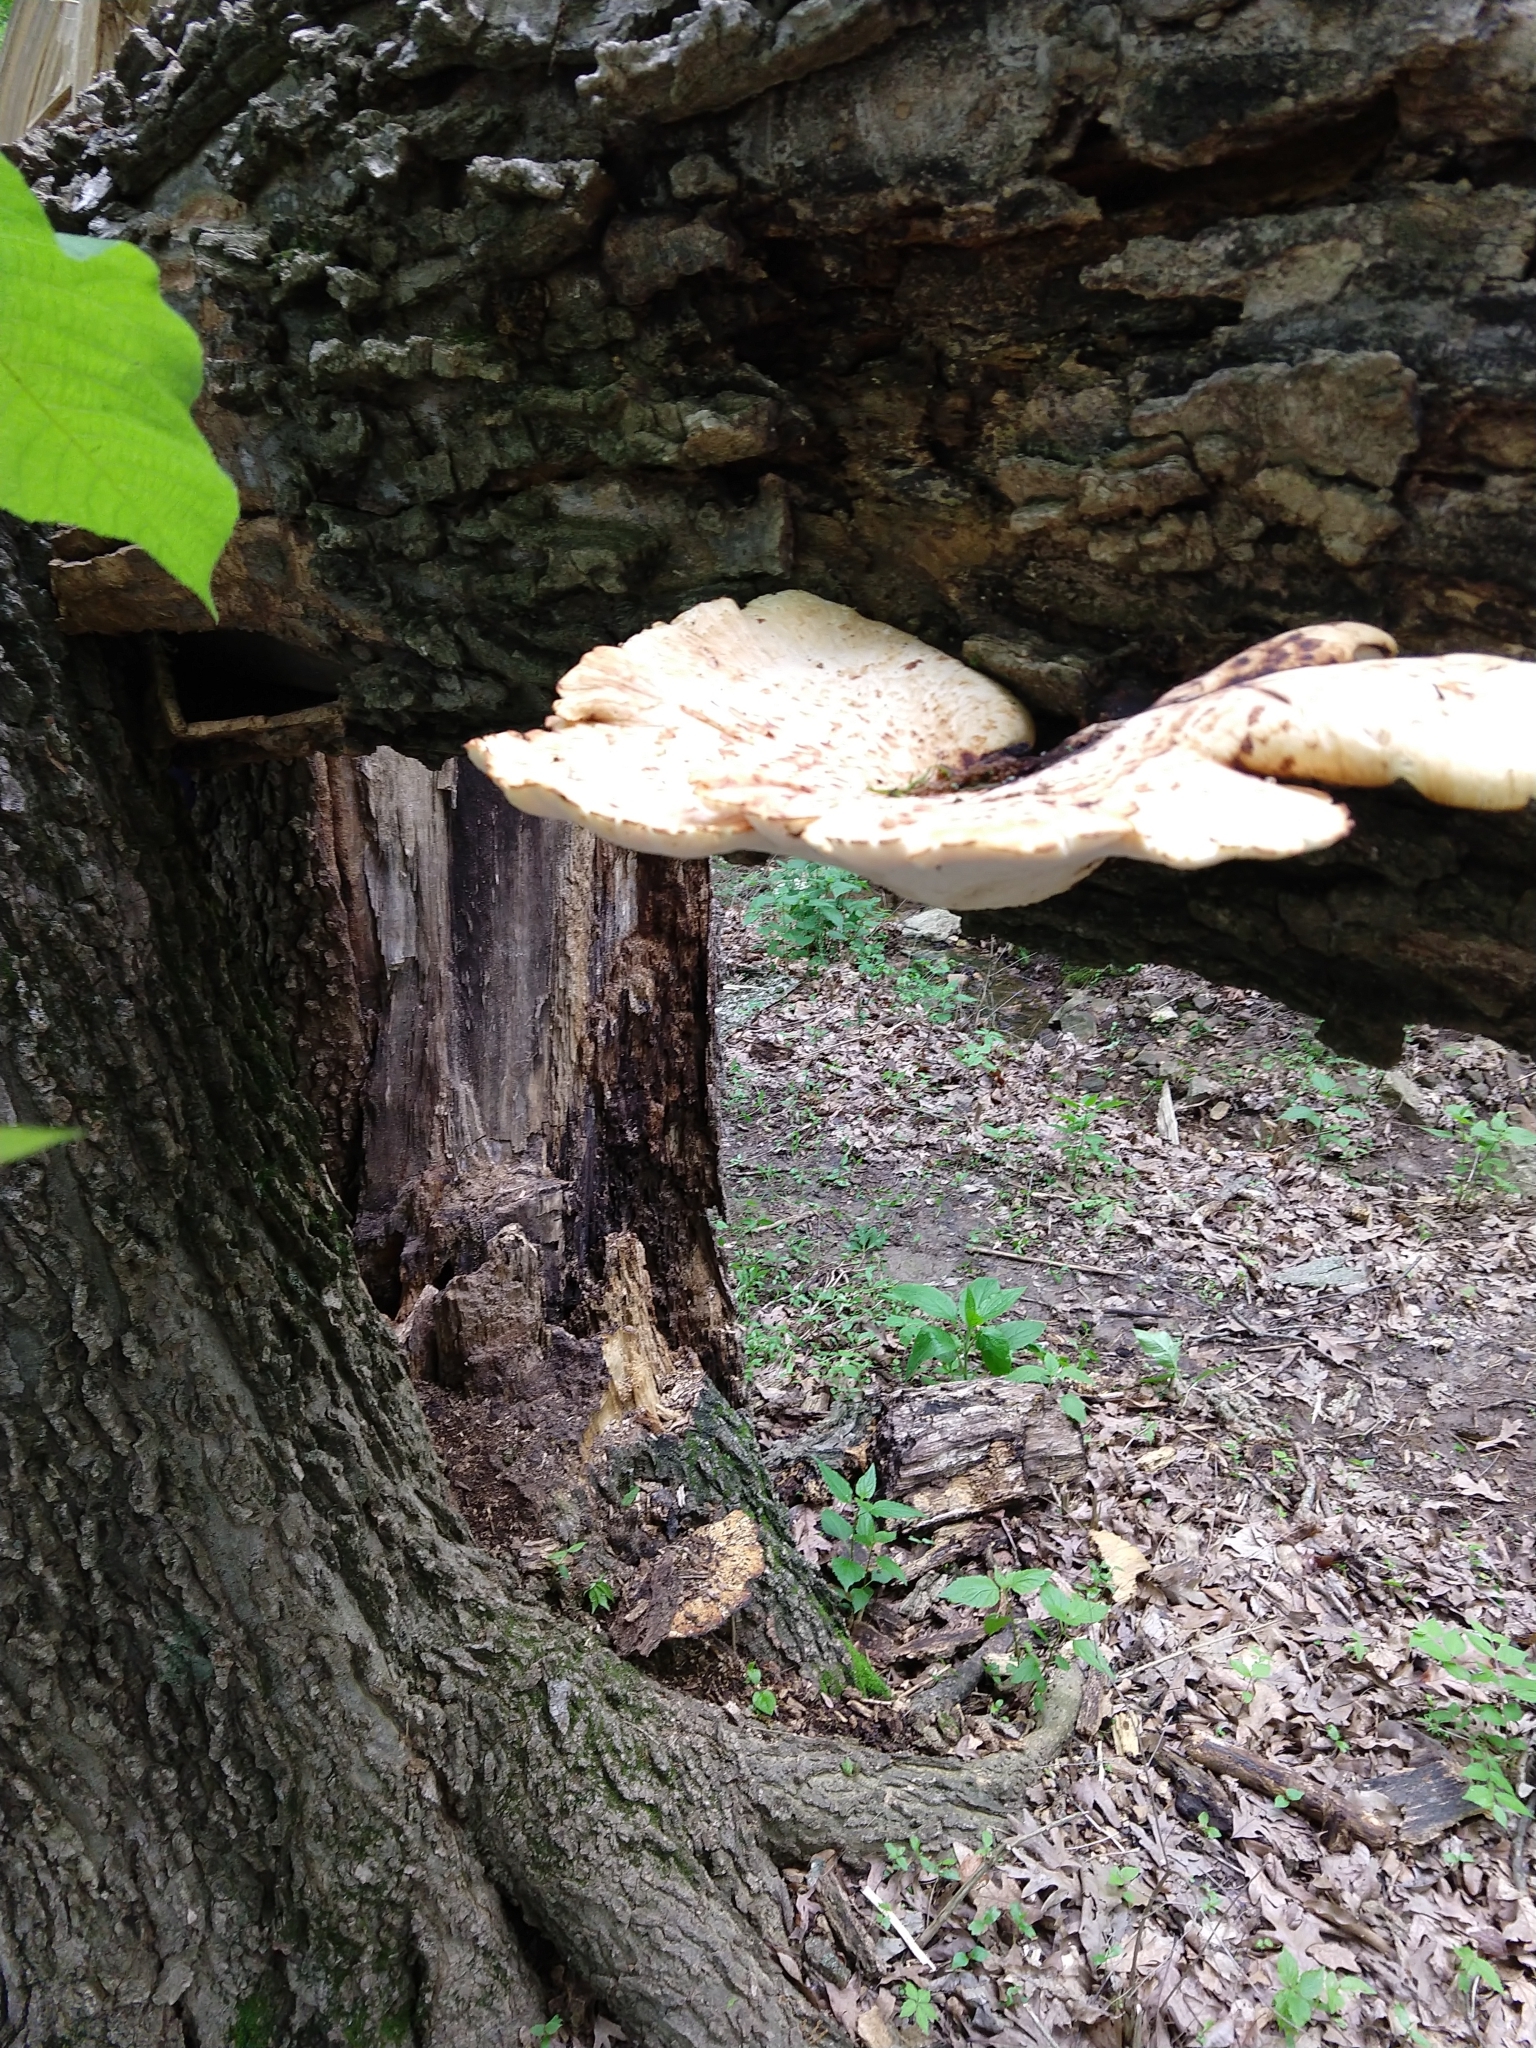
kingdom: Fungi
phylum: Basidiomycota
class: Agaricomycetes
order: Polyporales
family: Polyporaceae
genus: Cerioporus
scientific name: Cerioporus squamosus
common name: Dryad's saddle
